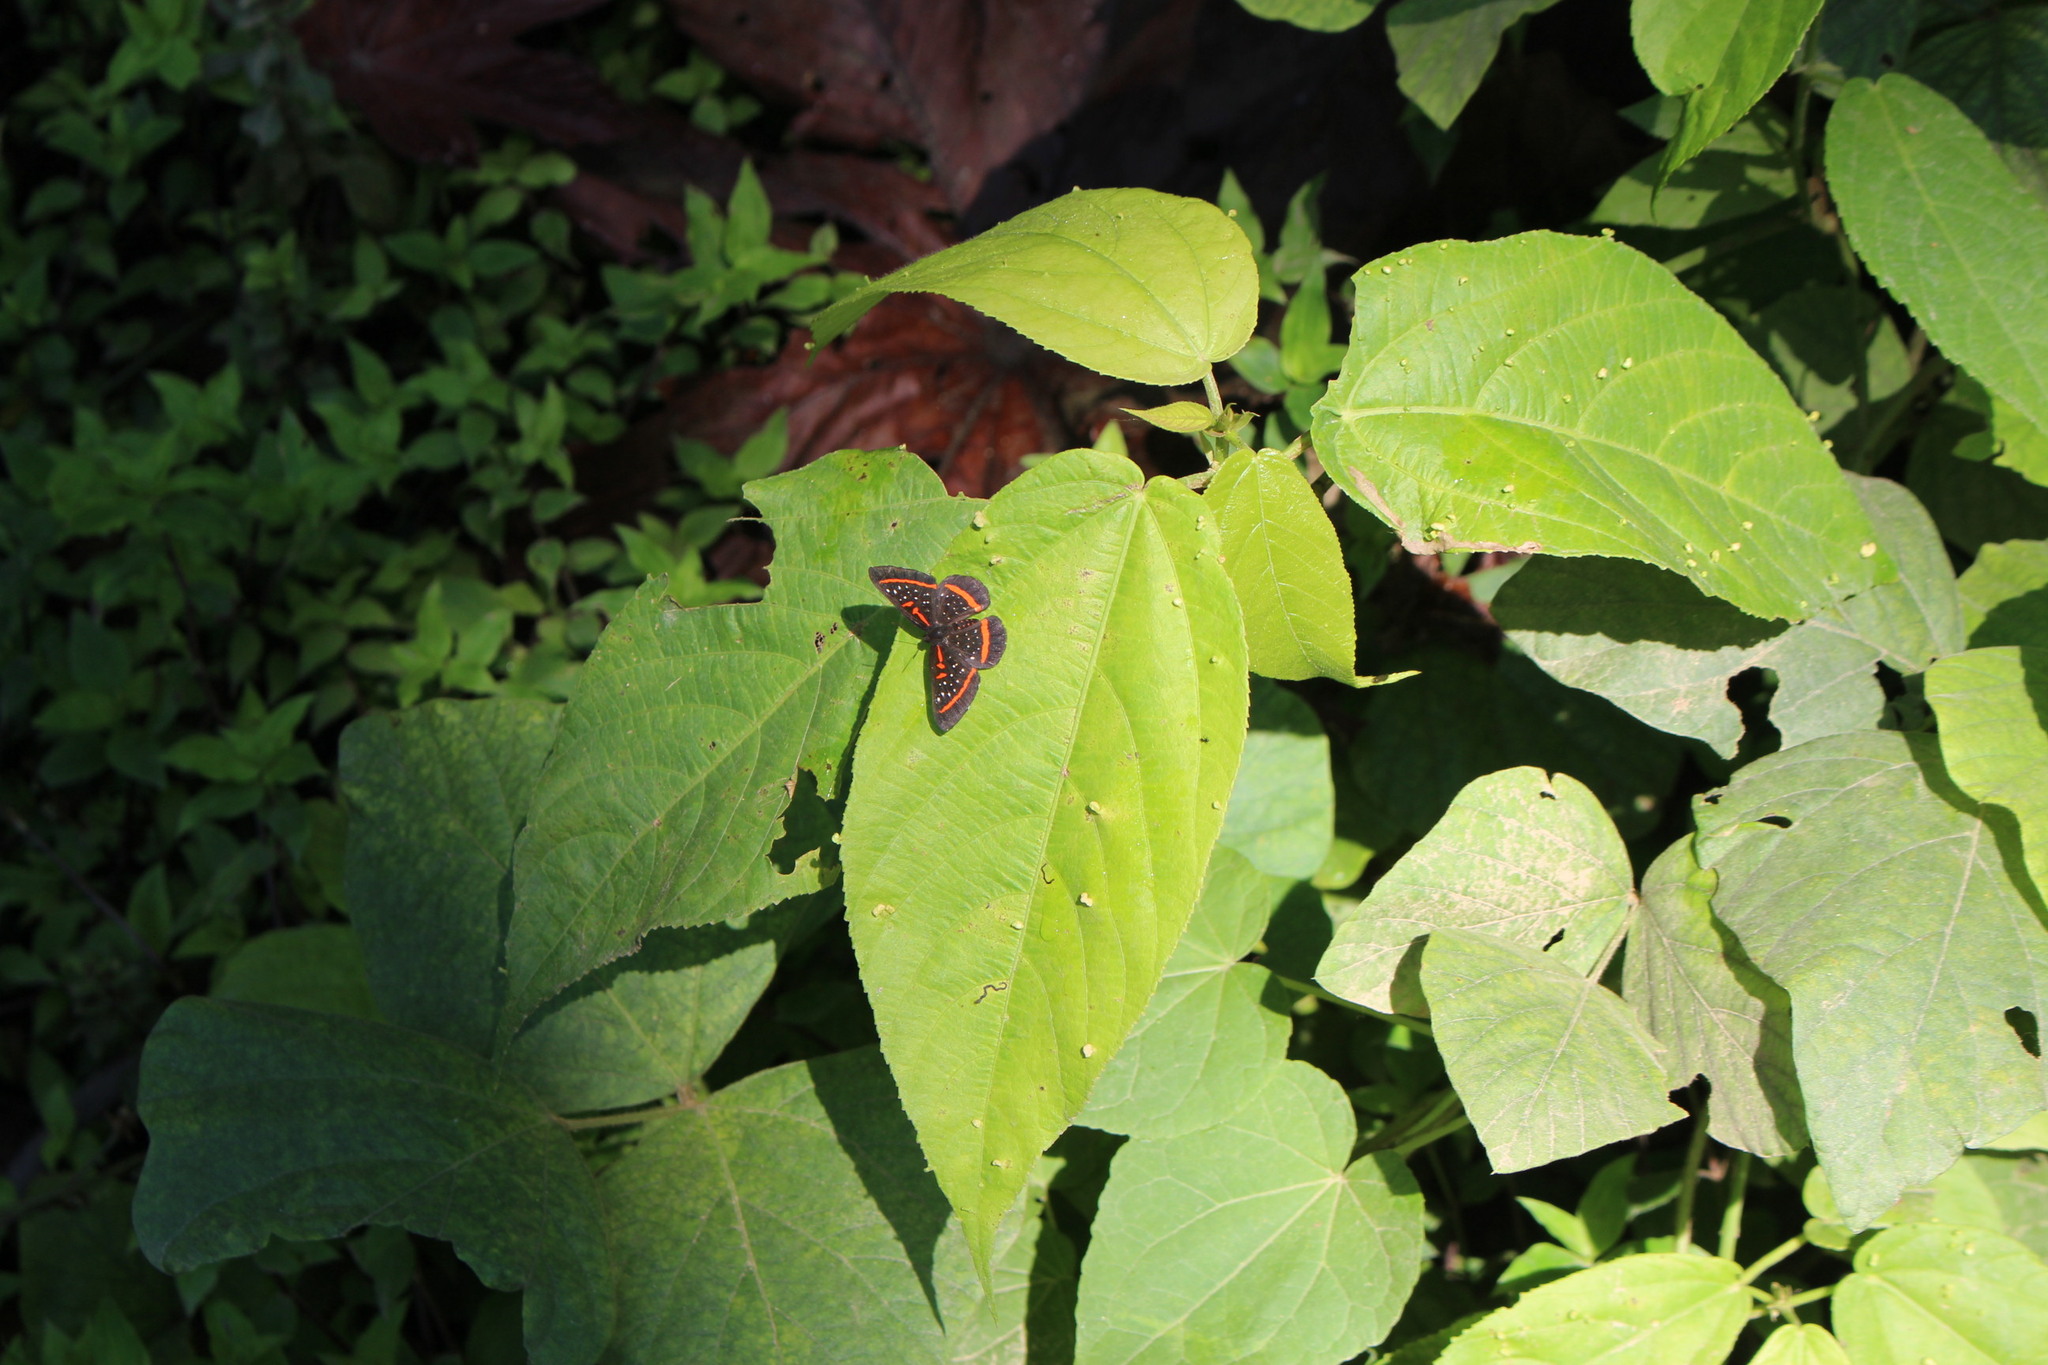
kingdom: Animalia
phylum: Arthropoda
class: Insecta
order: Lepidoptera
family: Riodinidae
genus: Amarynthis
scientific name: Amarynthis meneria
